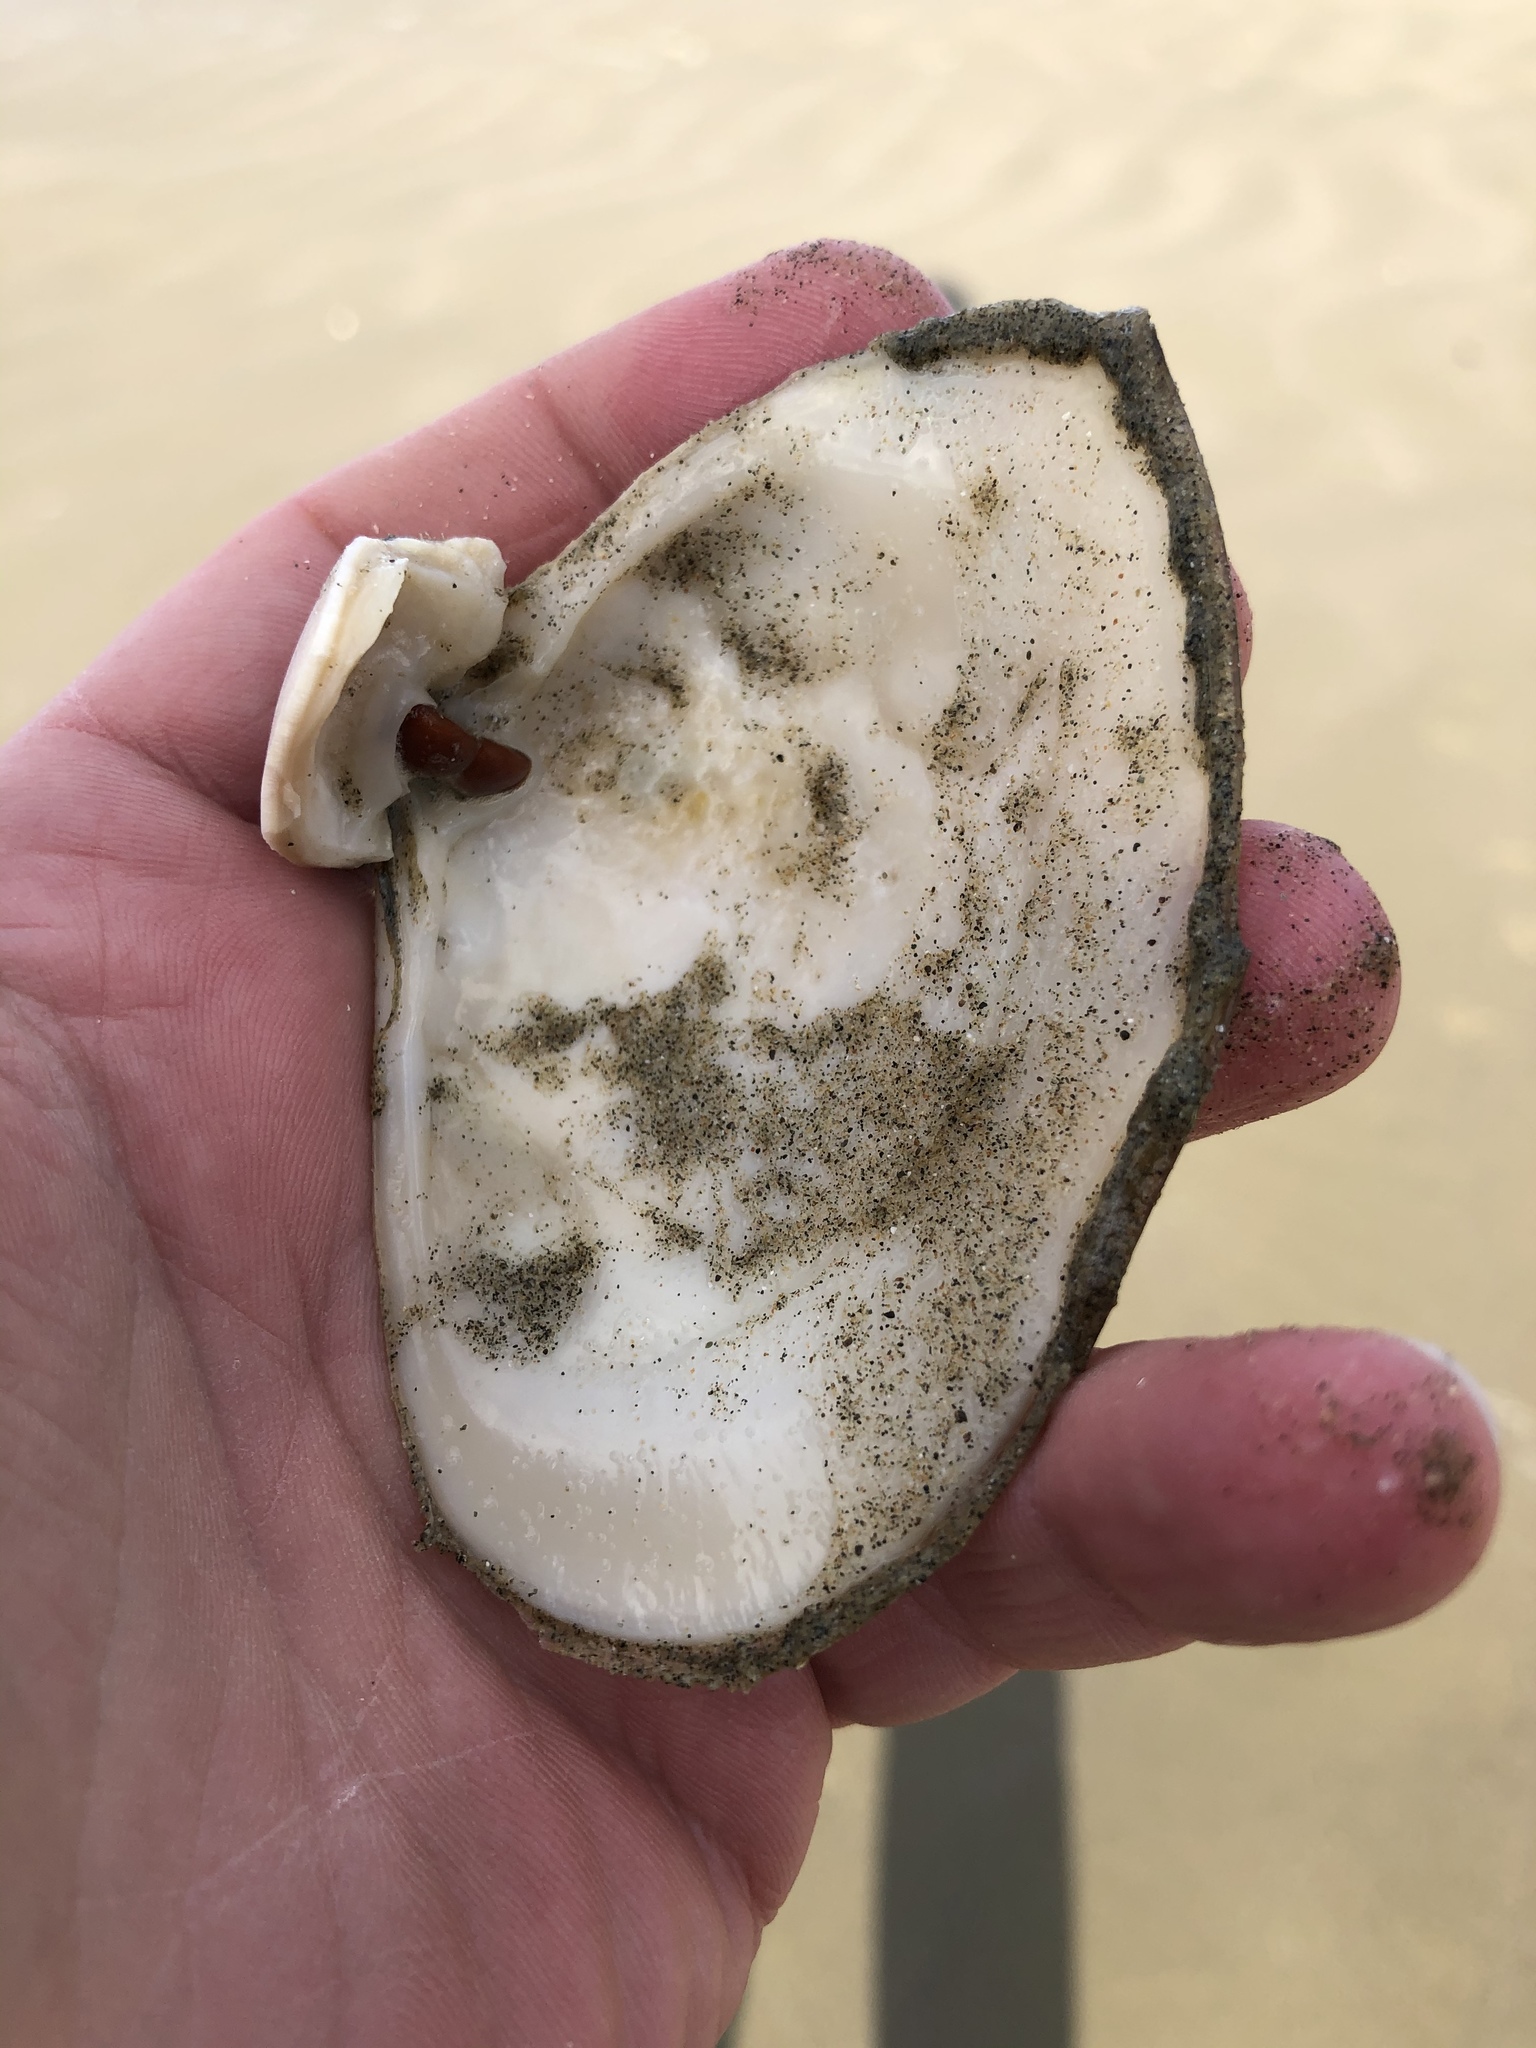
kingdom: Animalia
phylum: Mollusca
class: Bivalvia
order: Venerida
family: Mesodesmatidae
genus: Paphies
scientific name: Paphies donacina
